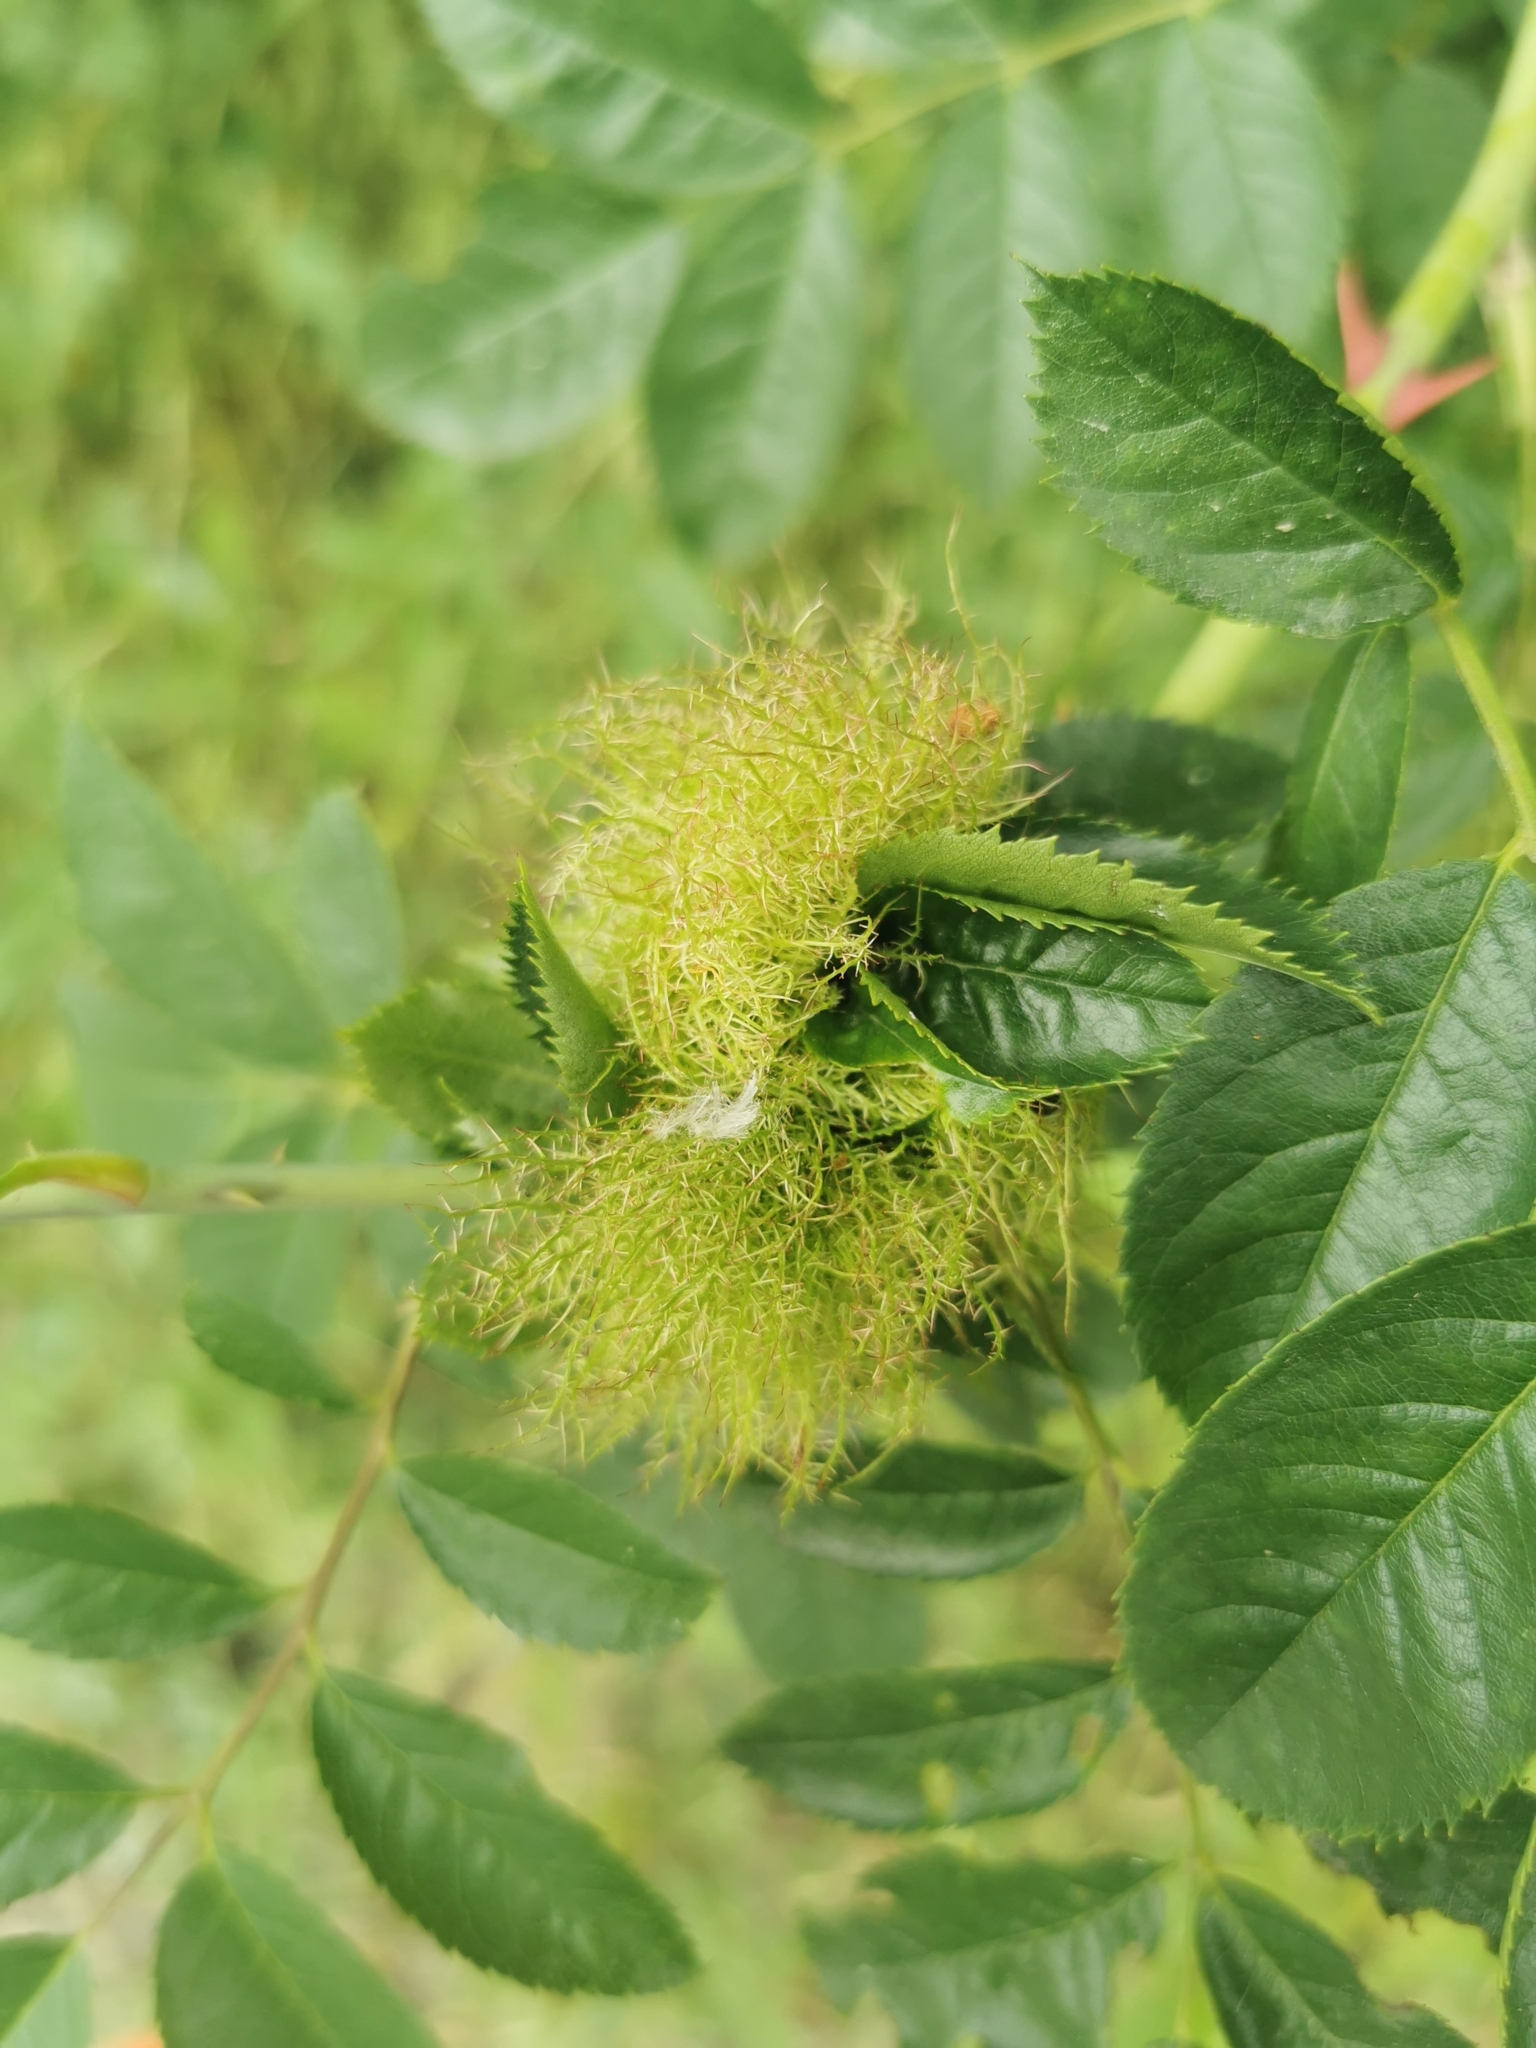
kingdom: Animalia
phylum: Arthropoda
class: Insecta
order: Hymenoptera
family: Cynipidae
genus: Diplolepis
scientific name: Diplolepis rosae
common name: Bedeguar gall
